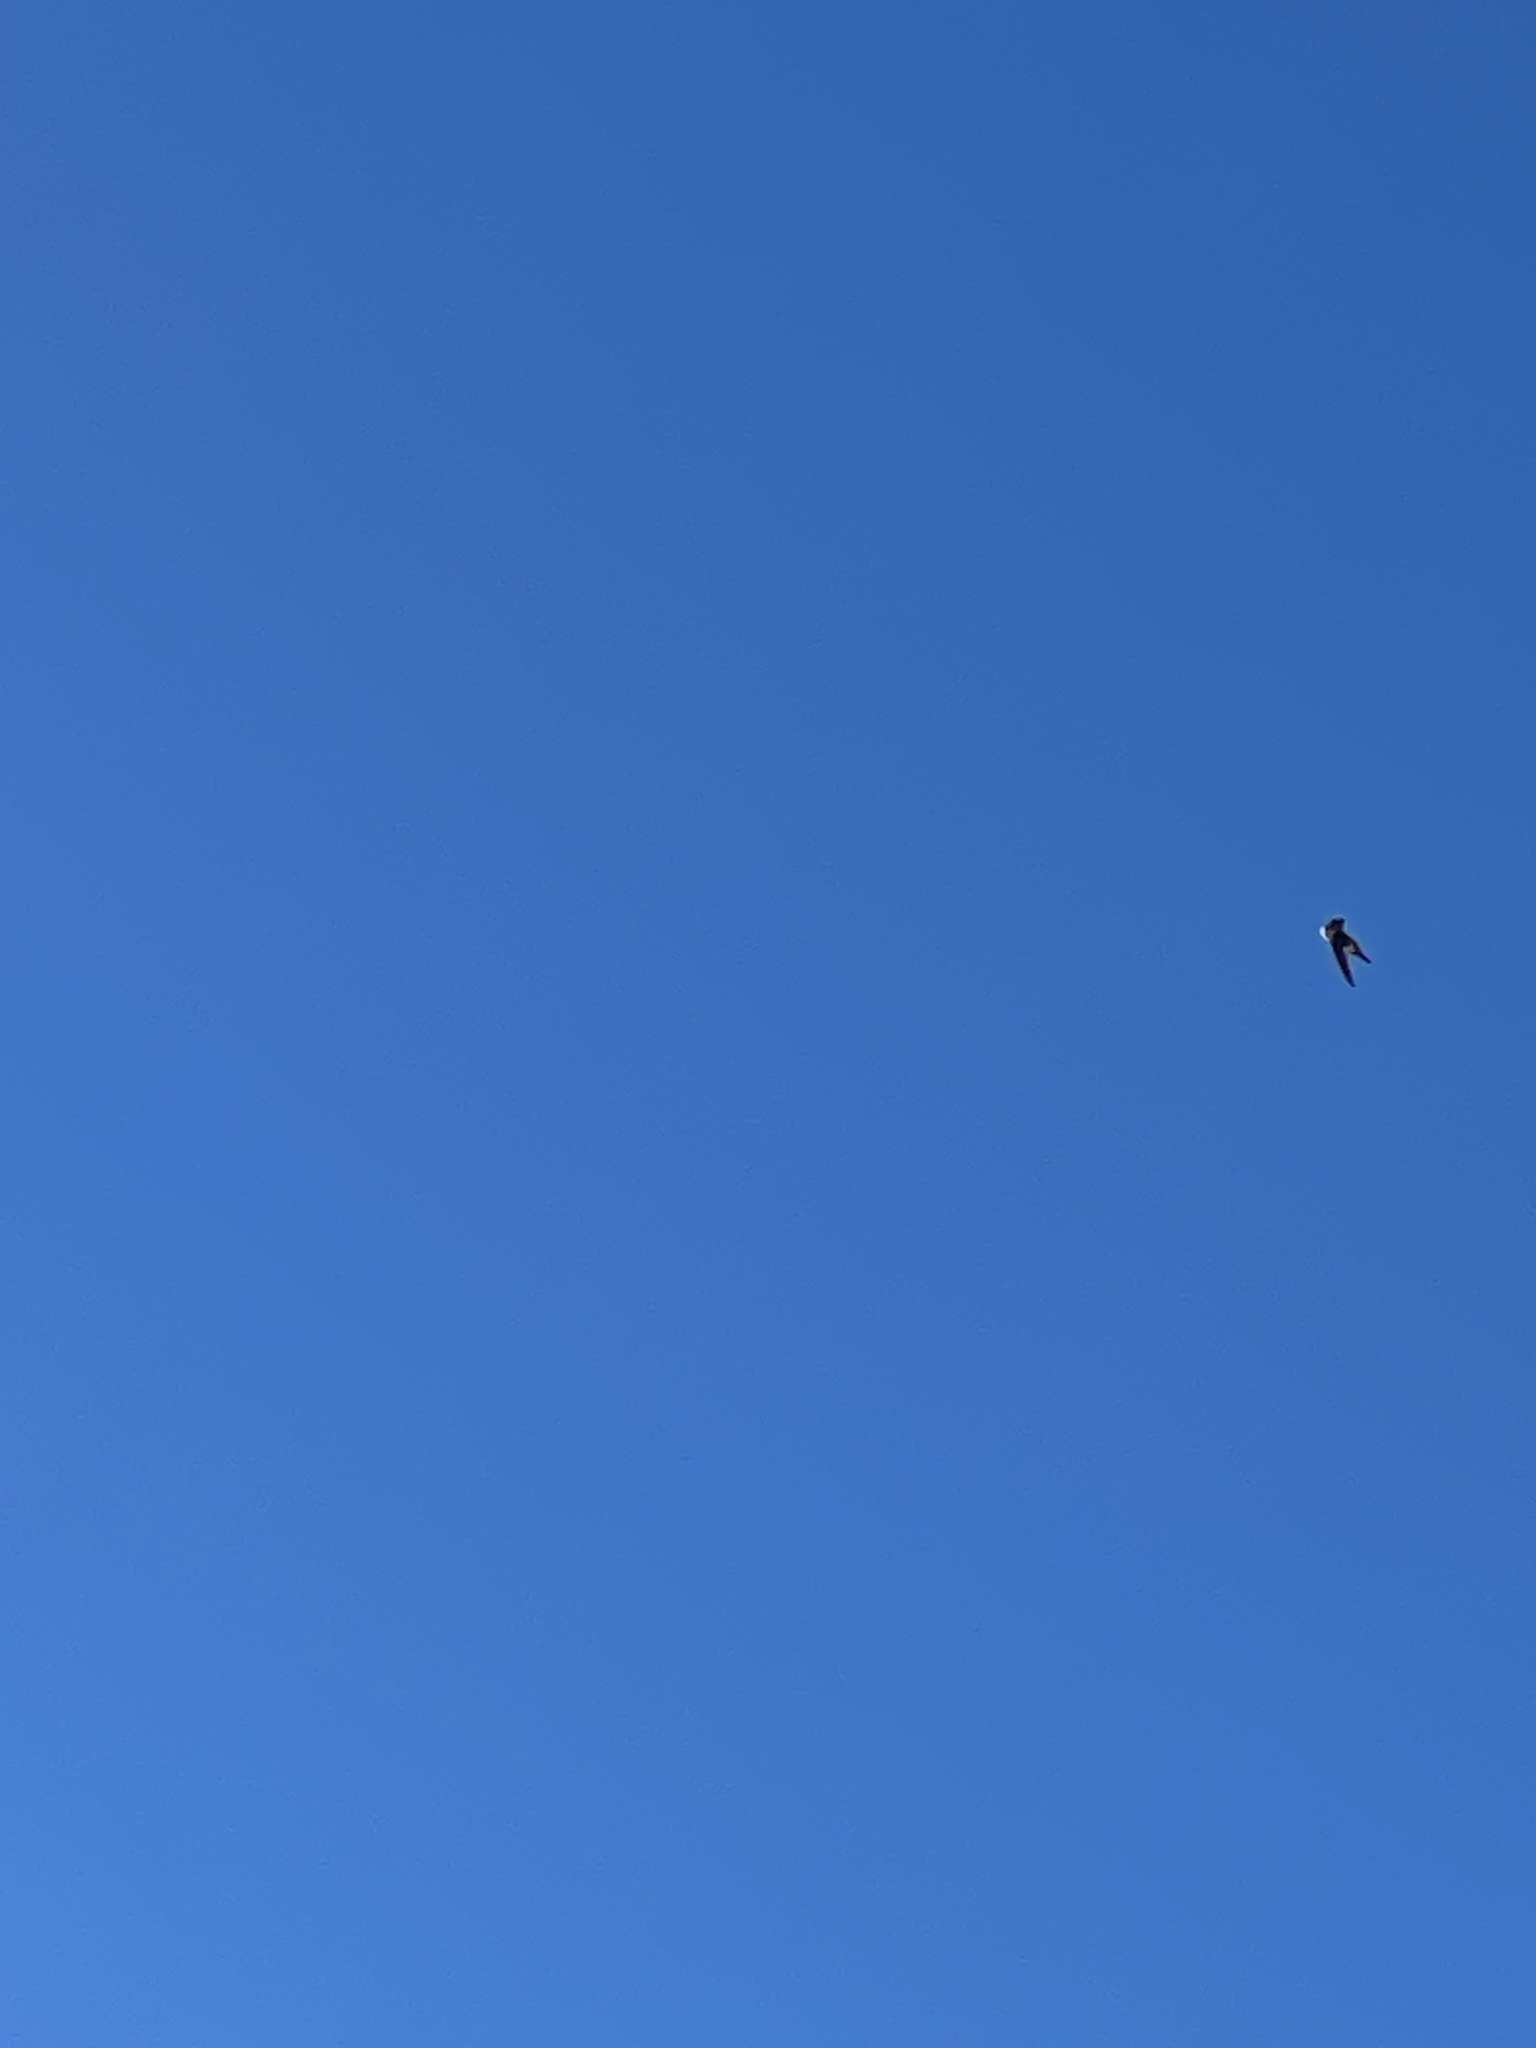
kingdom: Animalia
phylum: Chordata
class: Aves
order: Apodiformes
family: Apodidae
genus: Aeronautes
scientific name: Aeronautes saxatalis
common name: White-throated swift
